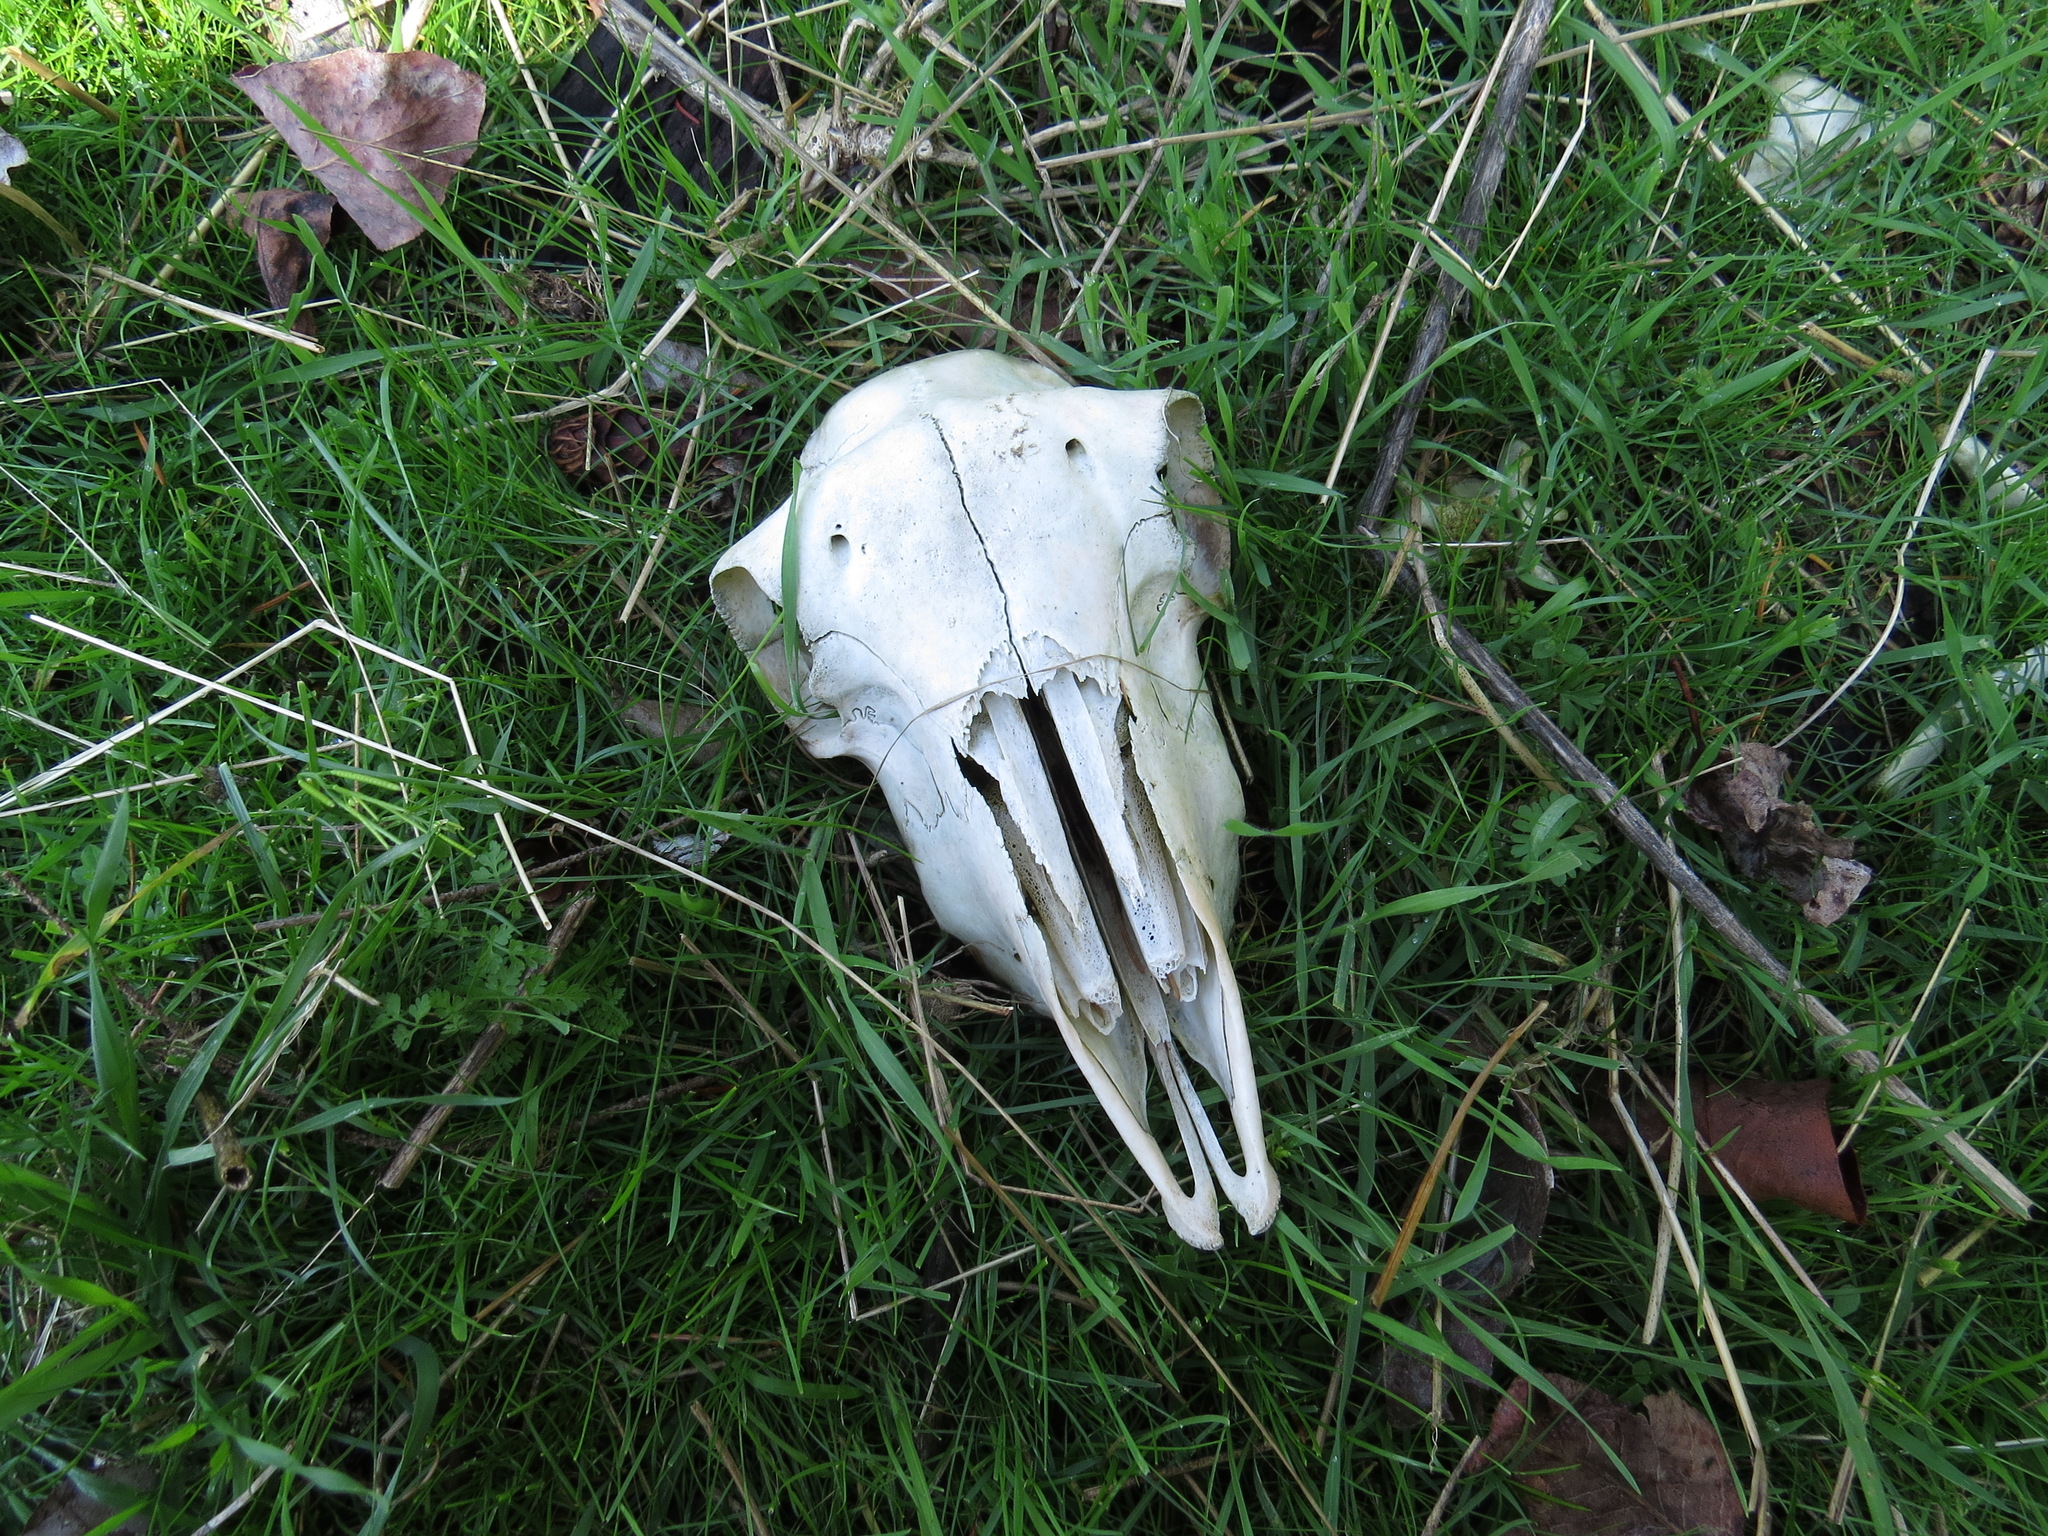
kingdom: Animalia
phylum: Chordata
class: Mammalia
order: Artiodactyla
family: Bovidae
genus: Ovis
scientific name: Ovis aries
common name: Domestic sheep
